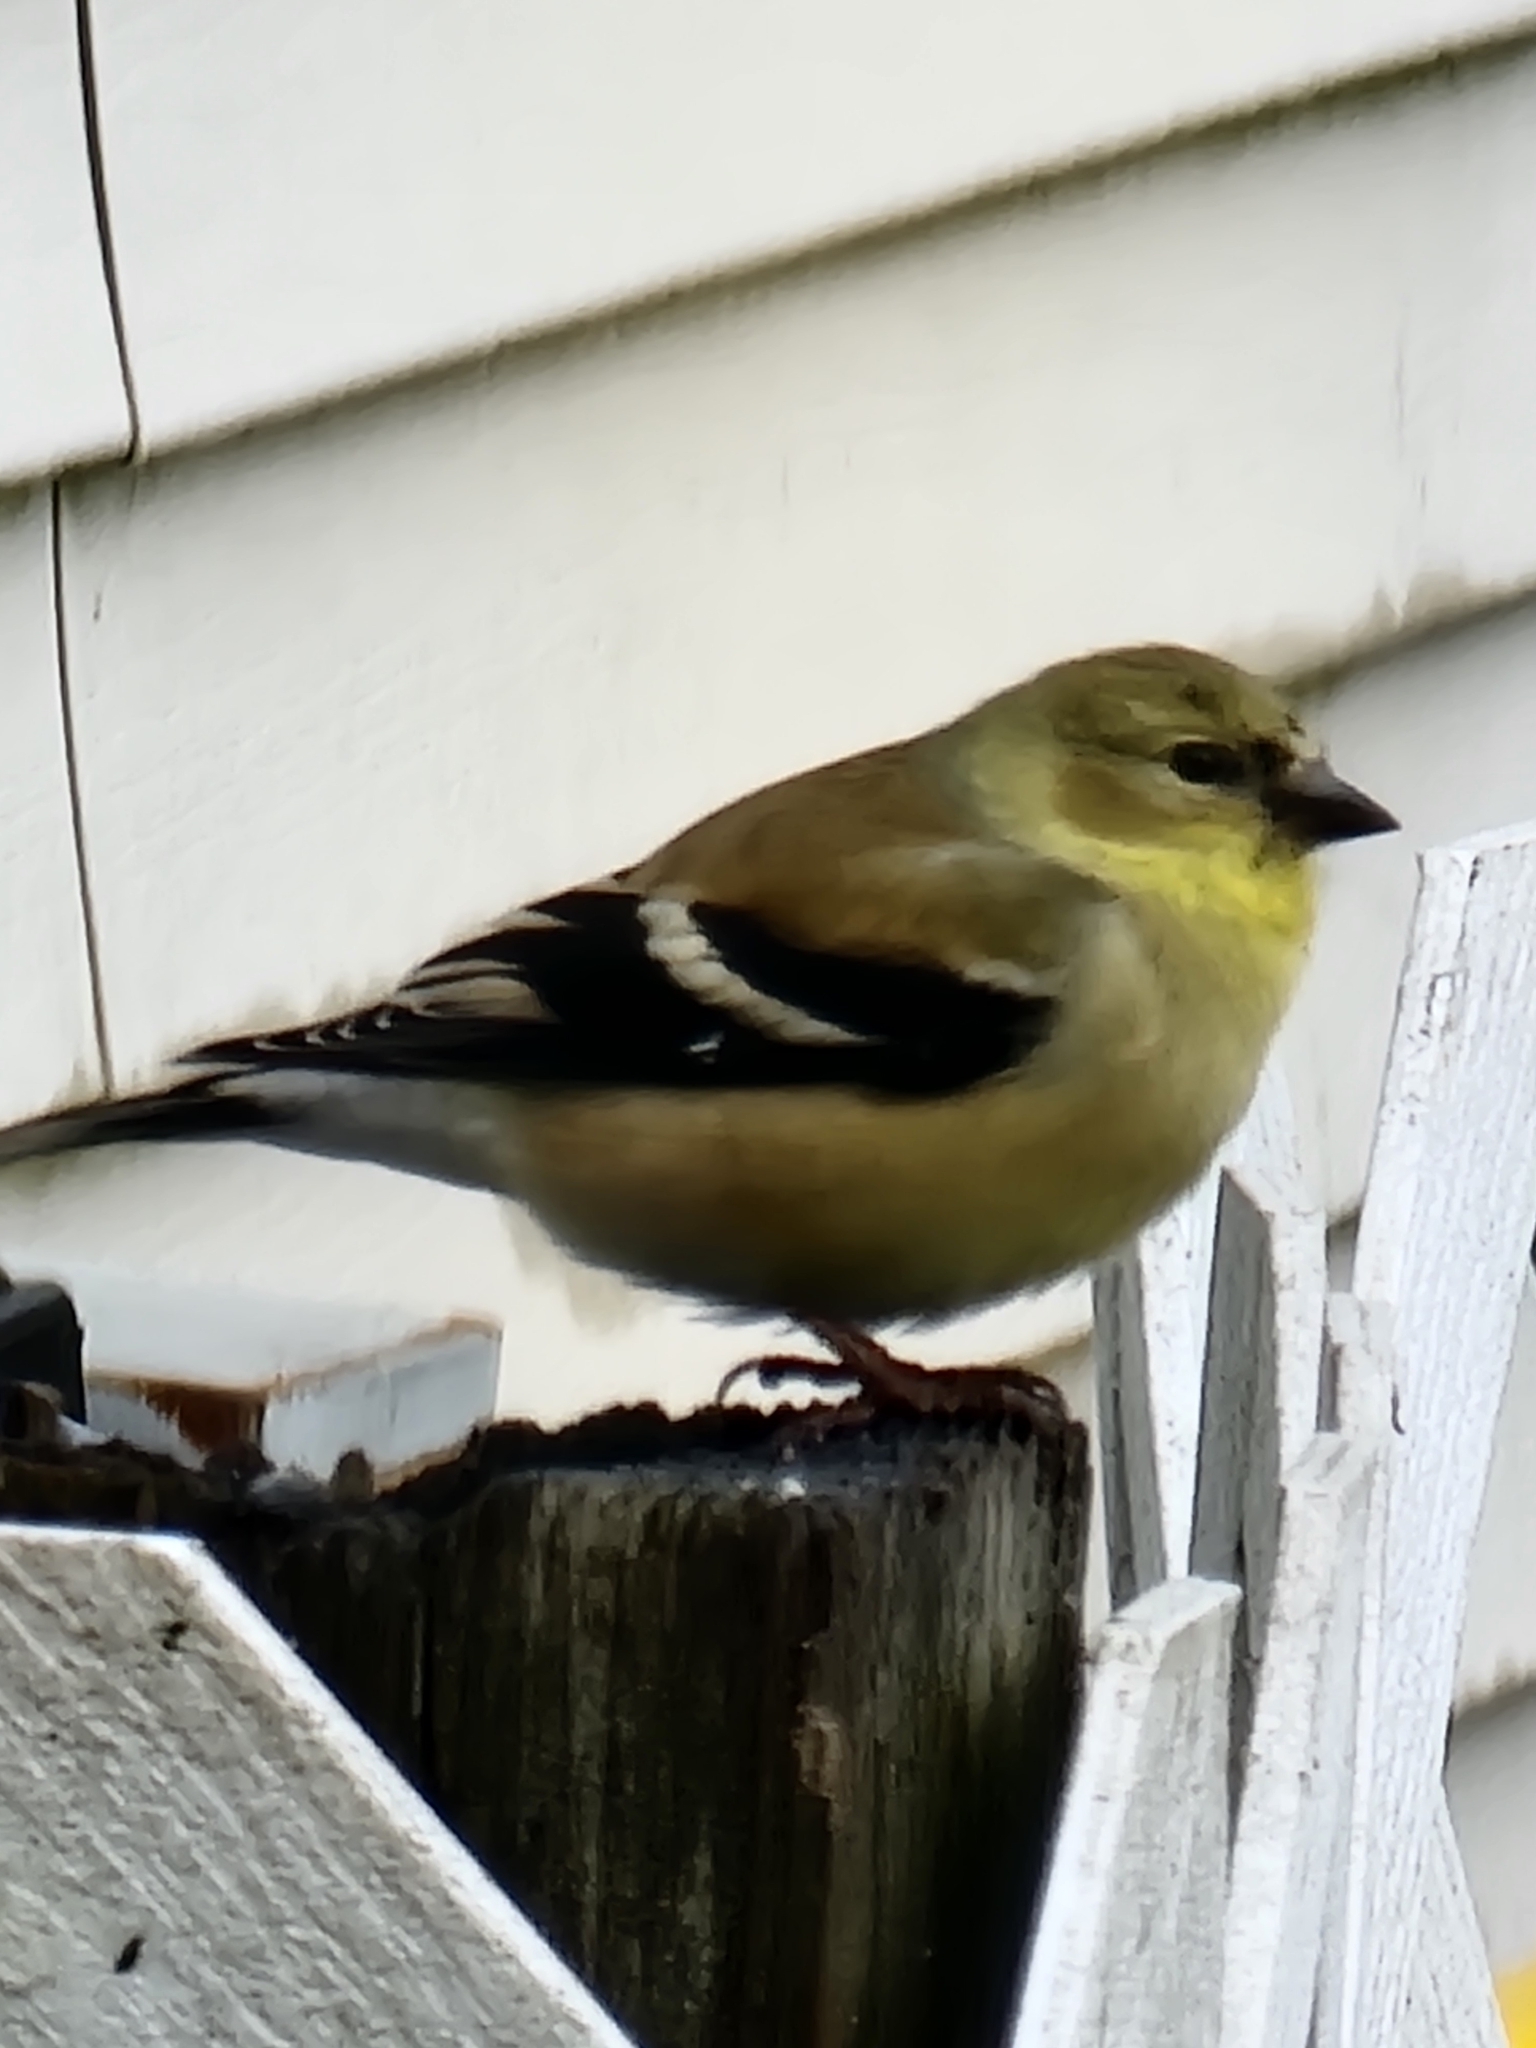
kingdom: Animalia
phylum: Chordata
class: Aves
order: Passeriformes
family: Fringillidae
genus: Spinus
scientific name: Spinus tristis
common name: American goldfinch
